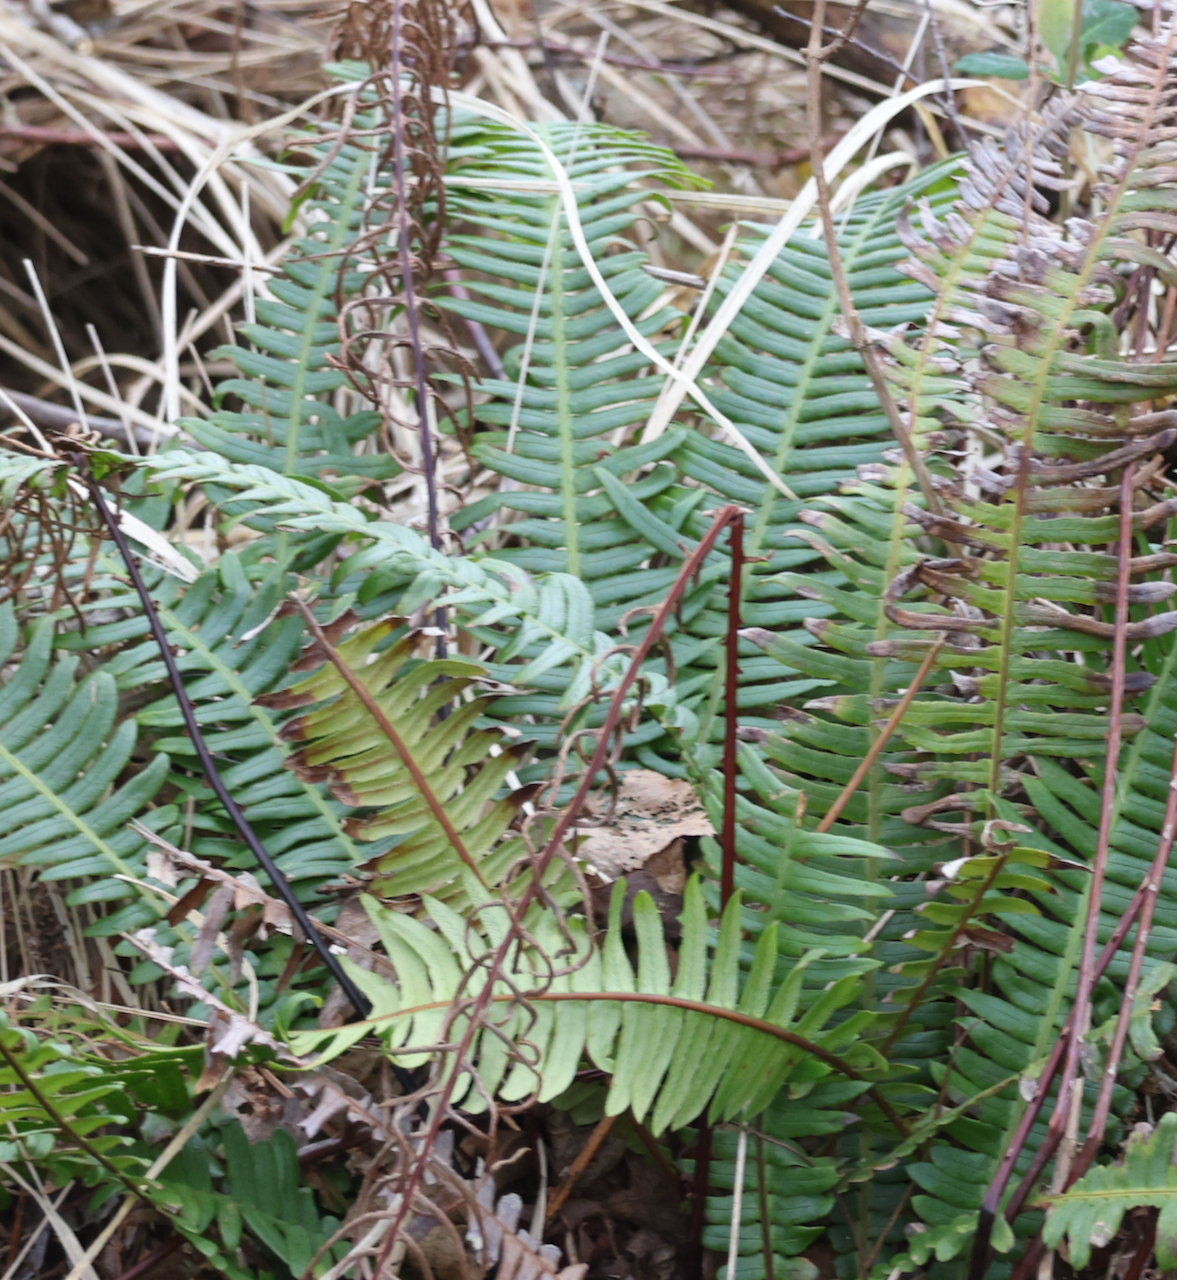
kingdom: Plantae
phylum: Tracheophyta
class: Polypodiopsida
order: Polypodiales
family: Blechnaceae
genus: Struthiopteris
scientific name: Struthiopteris spicant
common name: Deer fern
